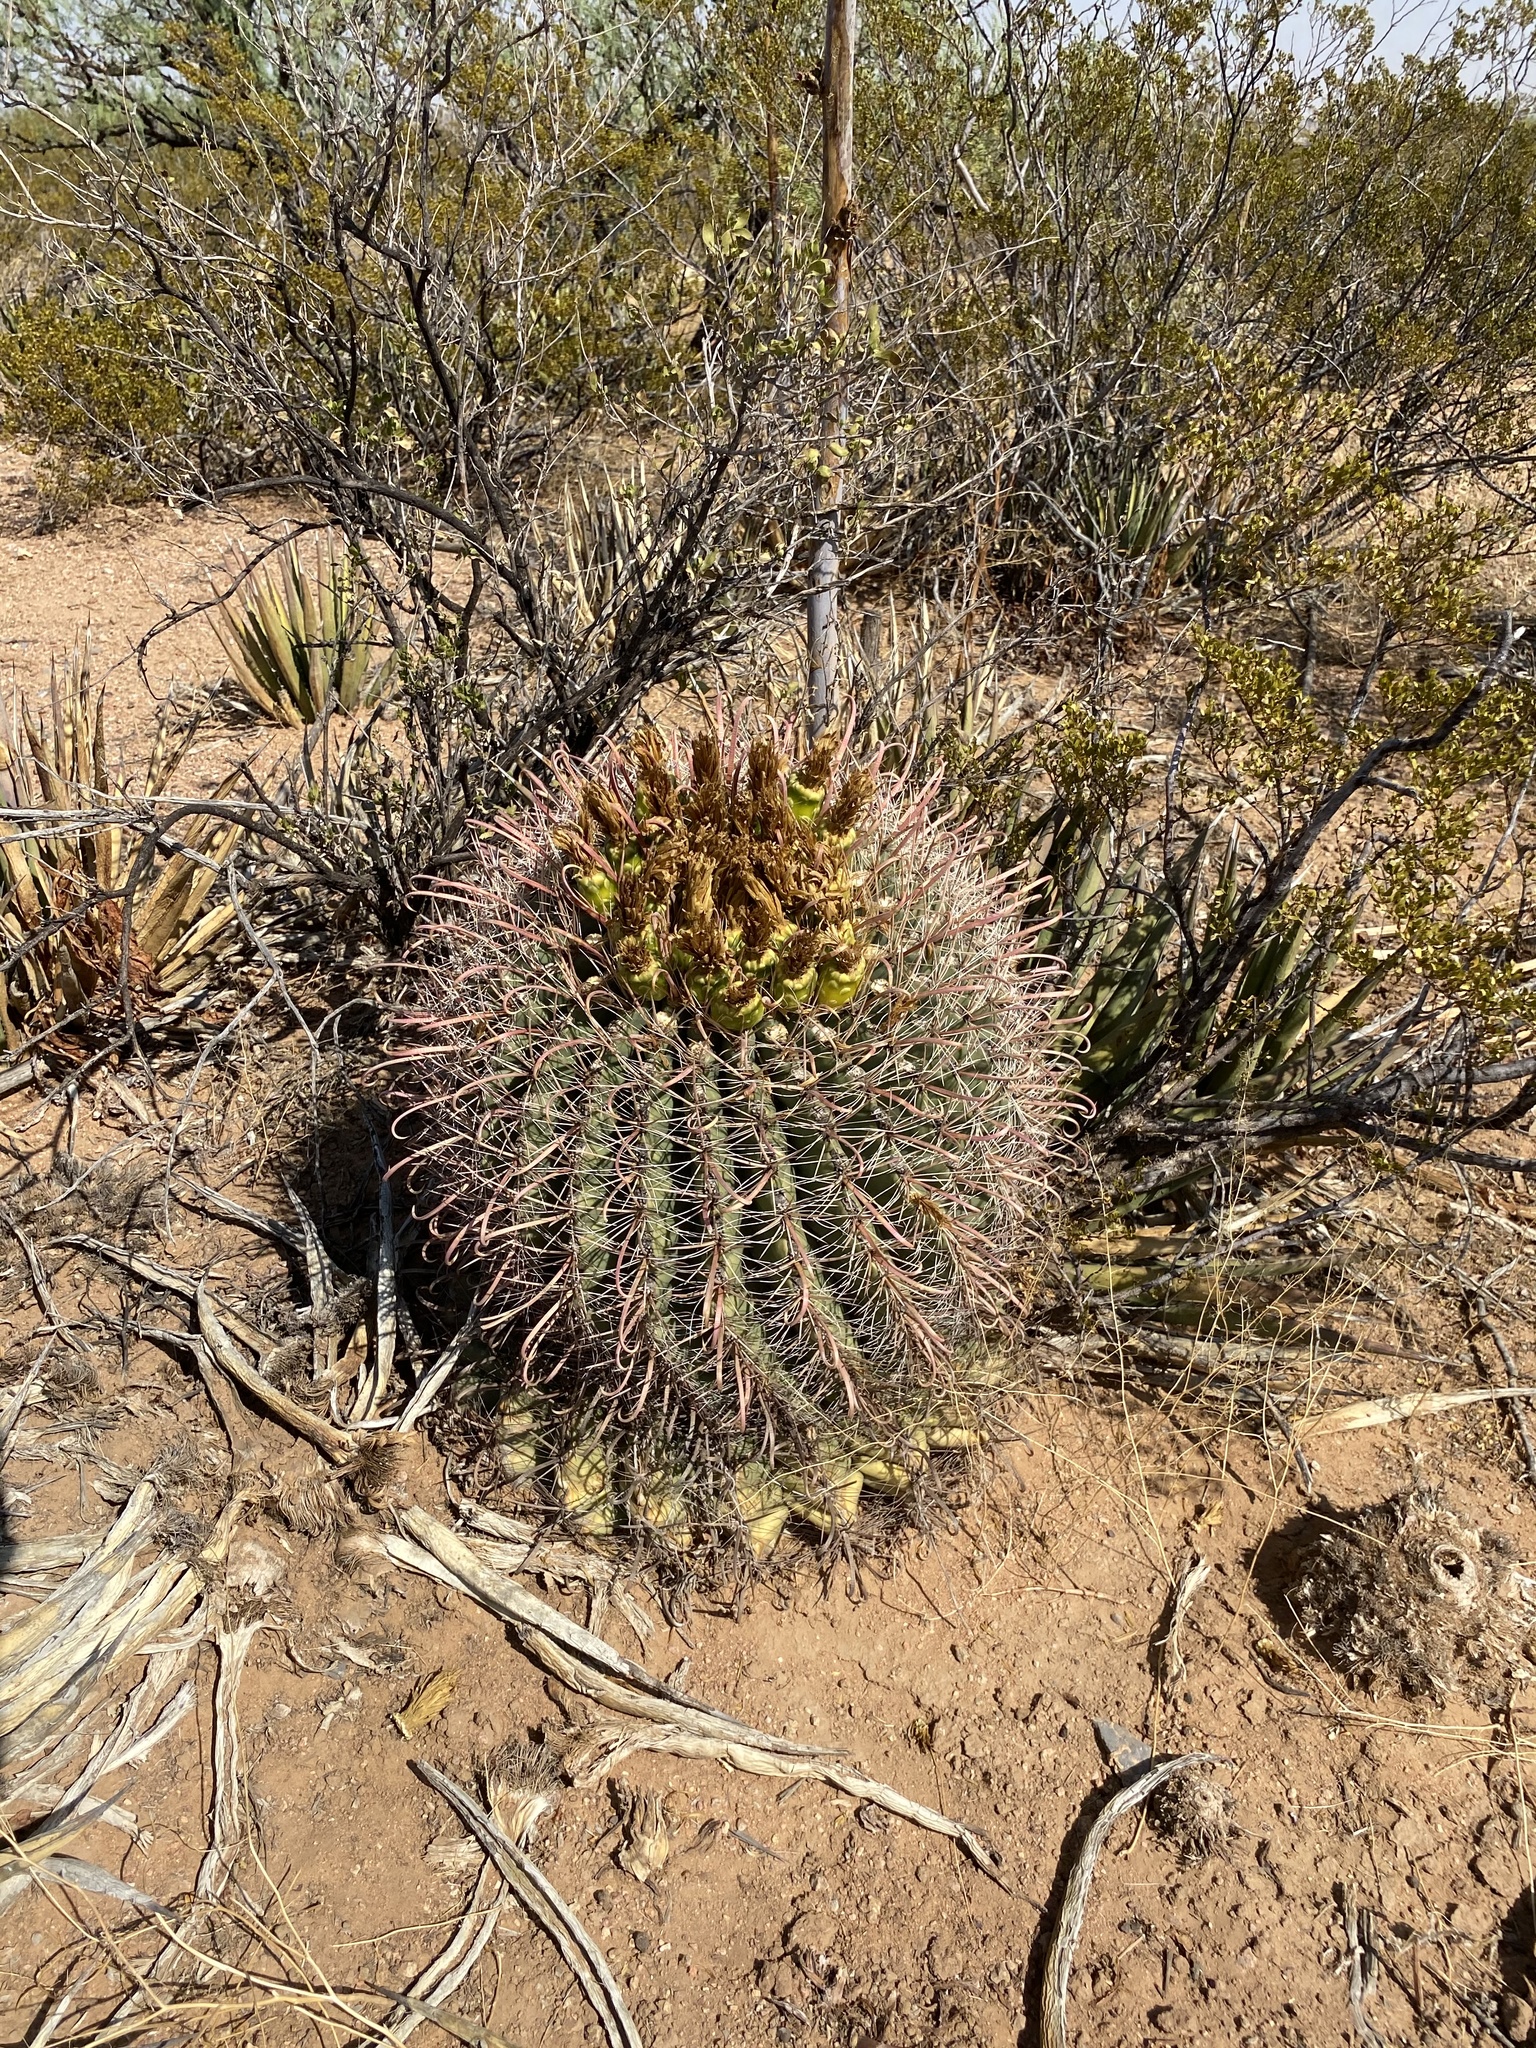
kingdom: Plantae
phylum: Tracheophyta
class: Magnoliopsida
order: Caryophyllales
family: Cactaceae
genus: Ferocactus
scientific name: Ferocactus wislizeni
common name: Candy barrel cactus
